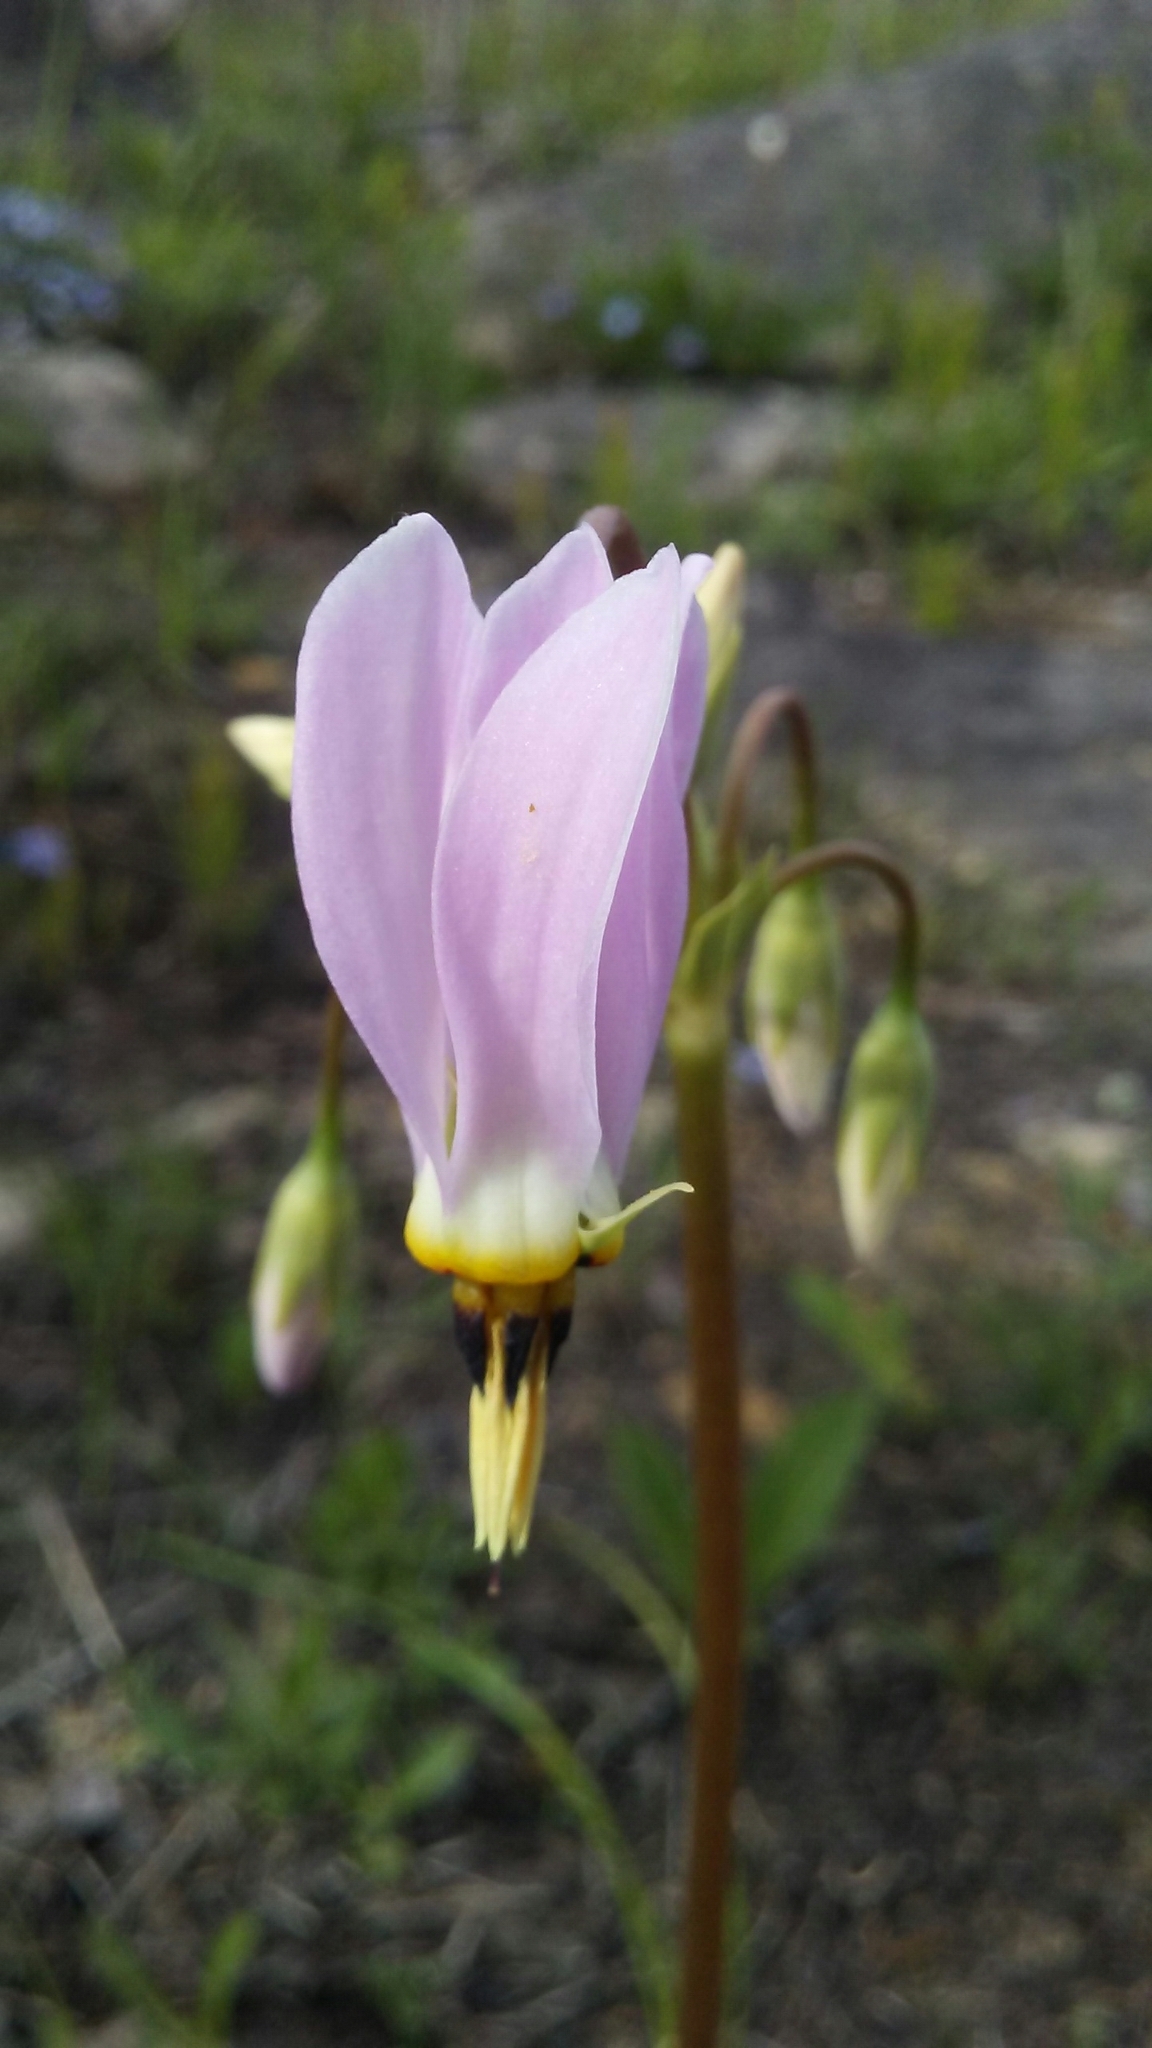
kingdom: Plantae
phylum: Tracheophyta
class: Magnoliopsida
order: Ericales
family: Primulaceae
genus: Dodecatheon
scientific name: Dodecatheon meadia
